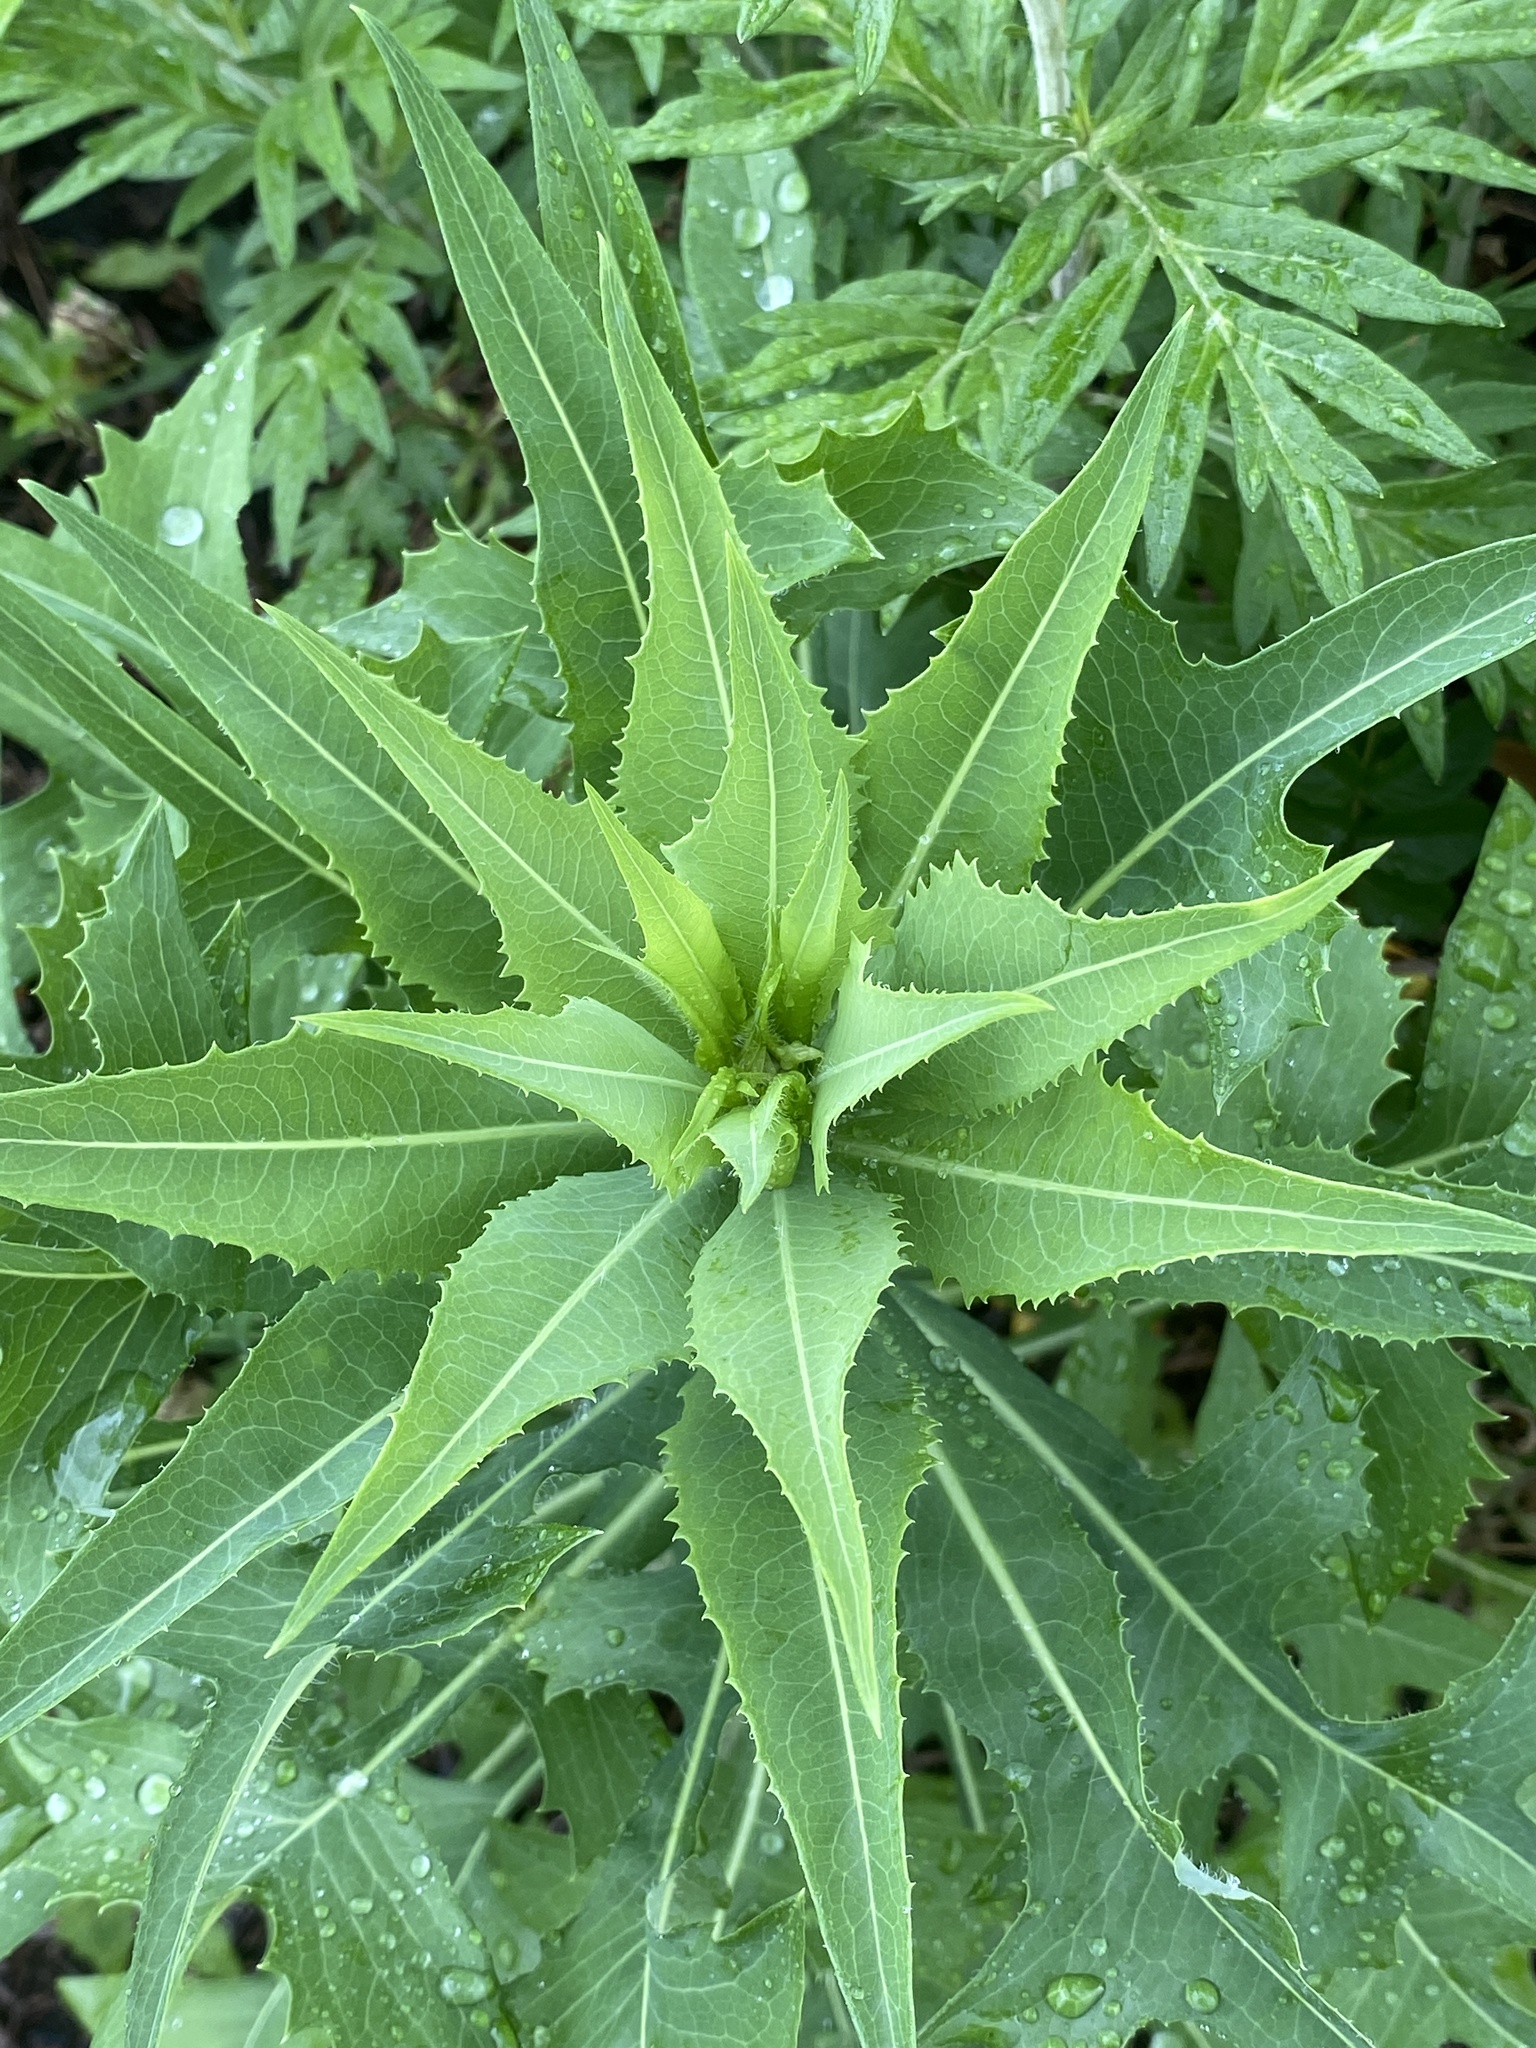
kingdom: Plantae
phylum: Tracheophyta
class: Magnoliopsida
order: Asterales
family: Asteraceae
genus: Lactuca
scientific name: Lactuca serriola
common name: Prickly lettuce
